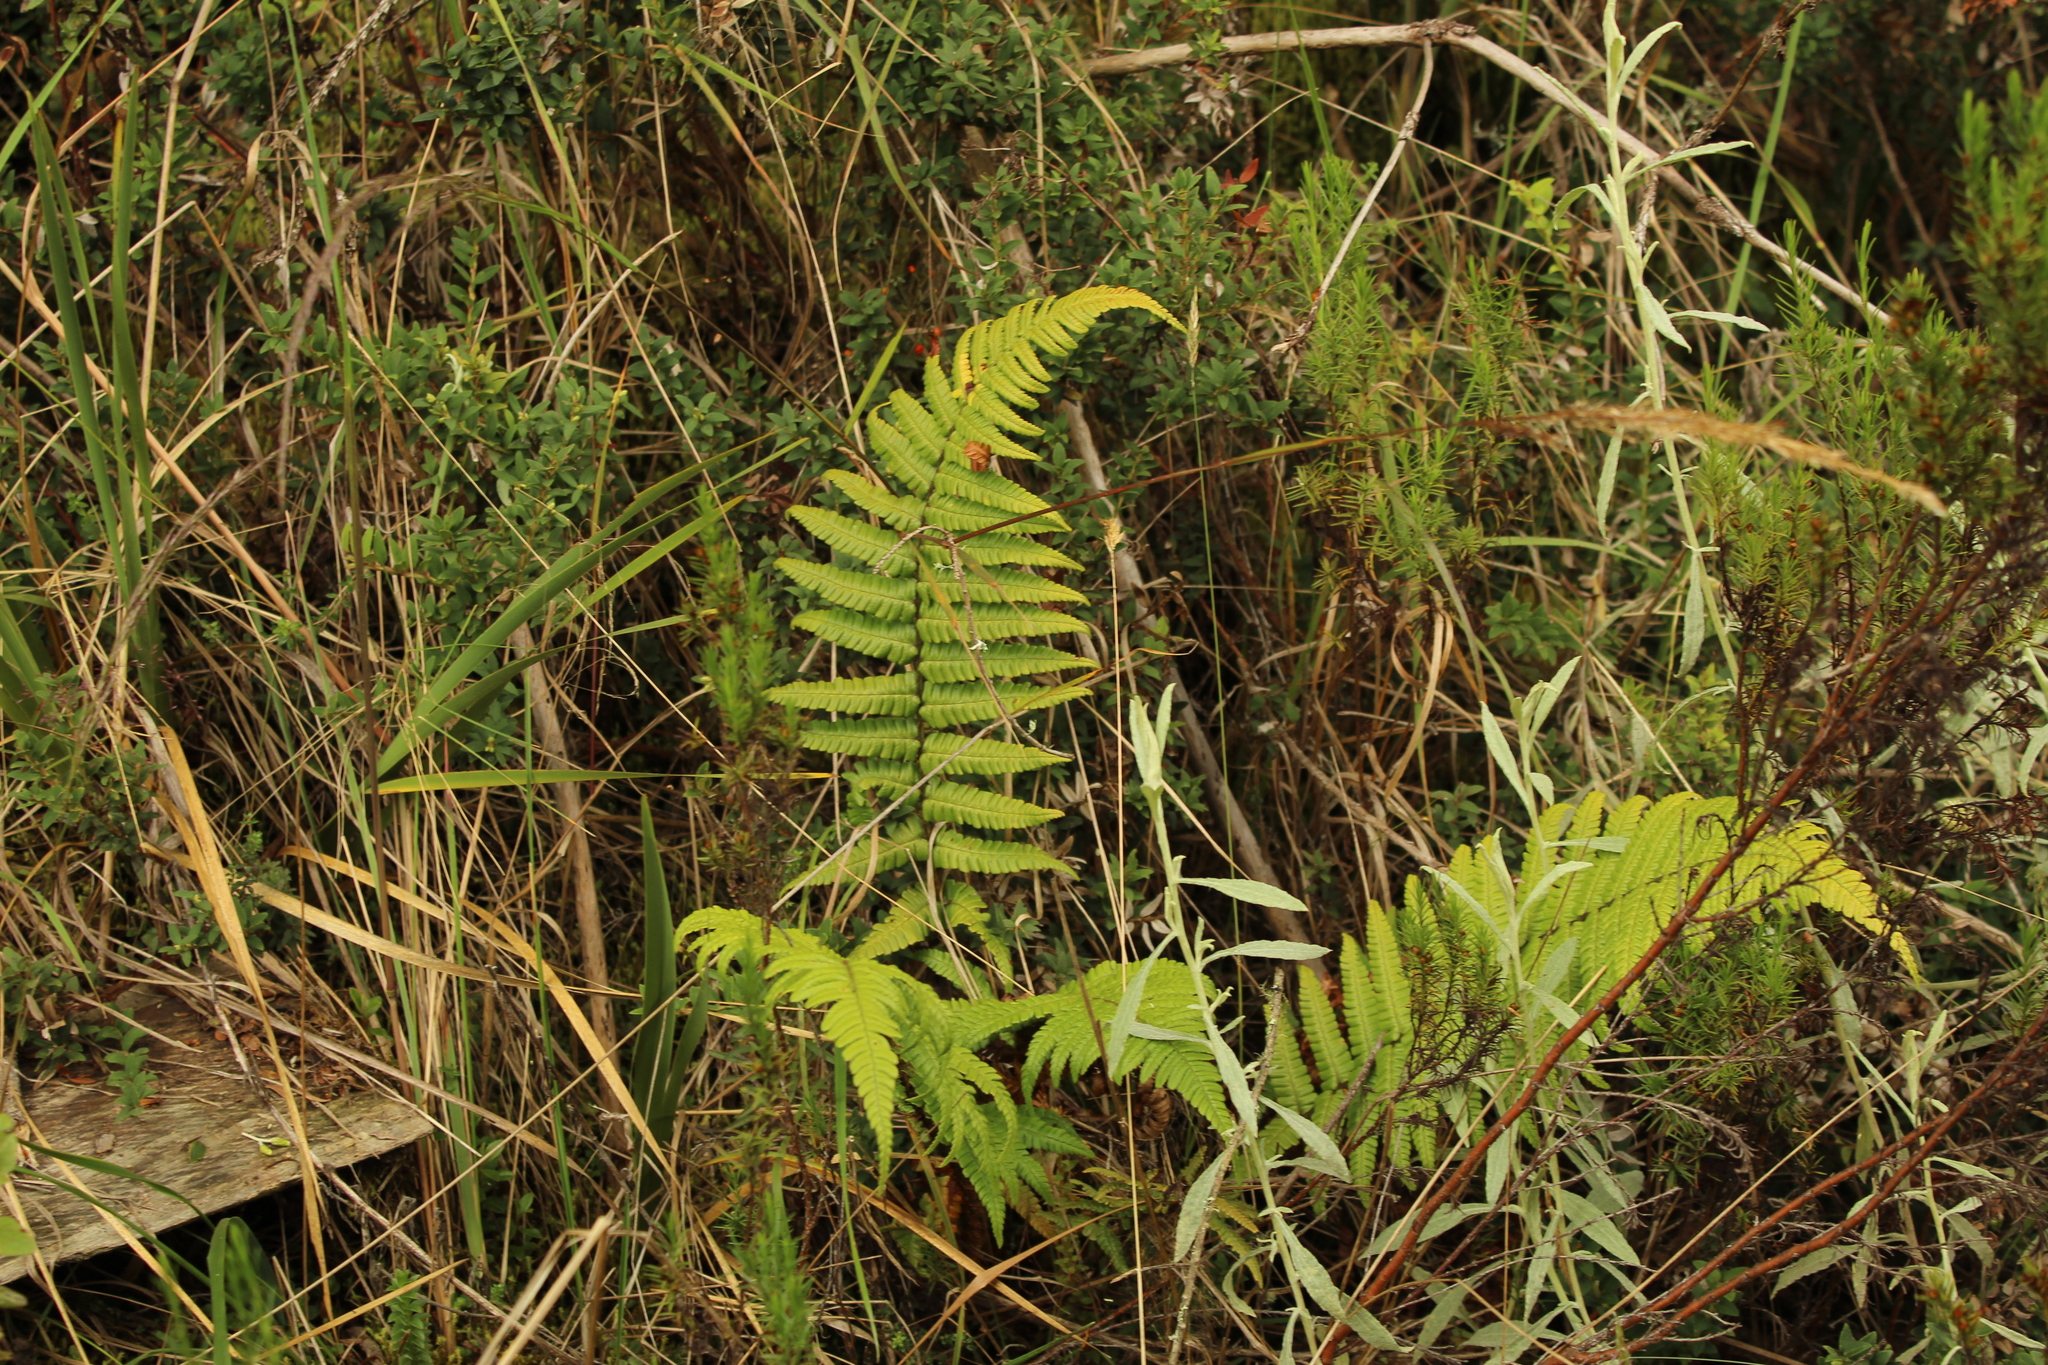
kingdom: Plantae
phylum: Tracheophyta
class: Polypodiopsida
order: Polypodiales
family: Dryopteridaceae
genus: Dryopteris
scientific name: Dryopteris wallichiana
